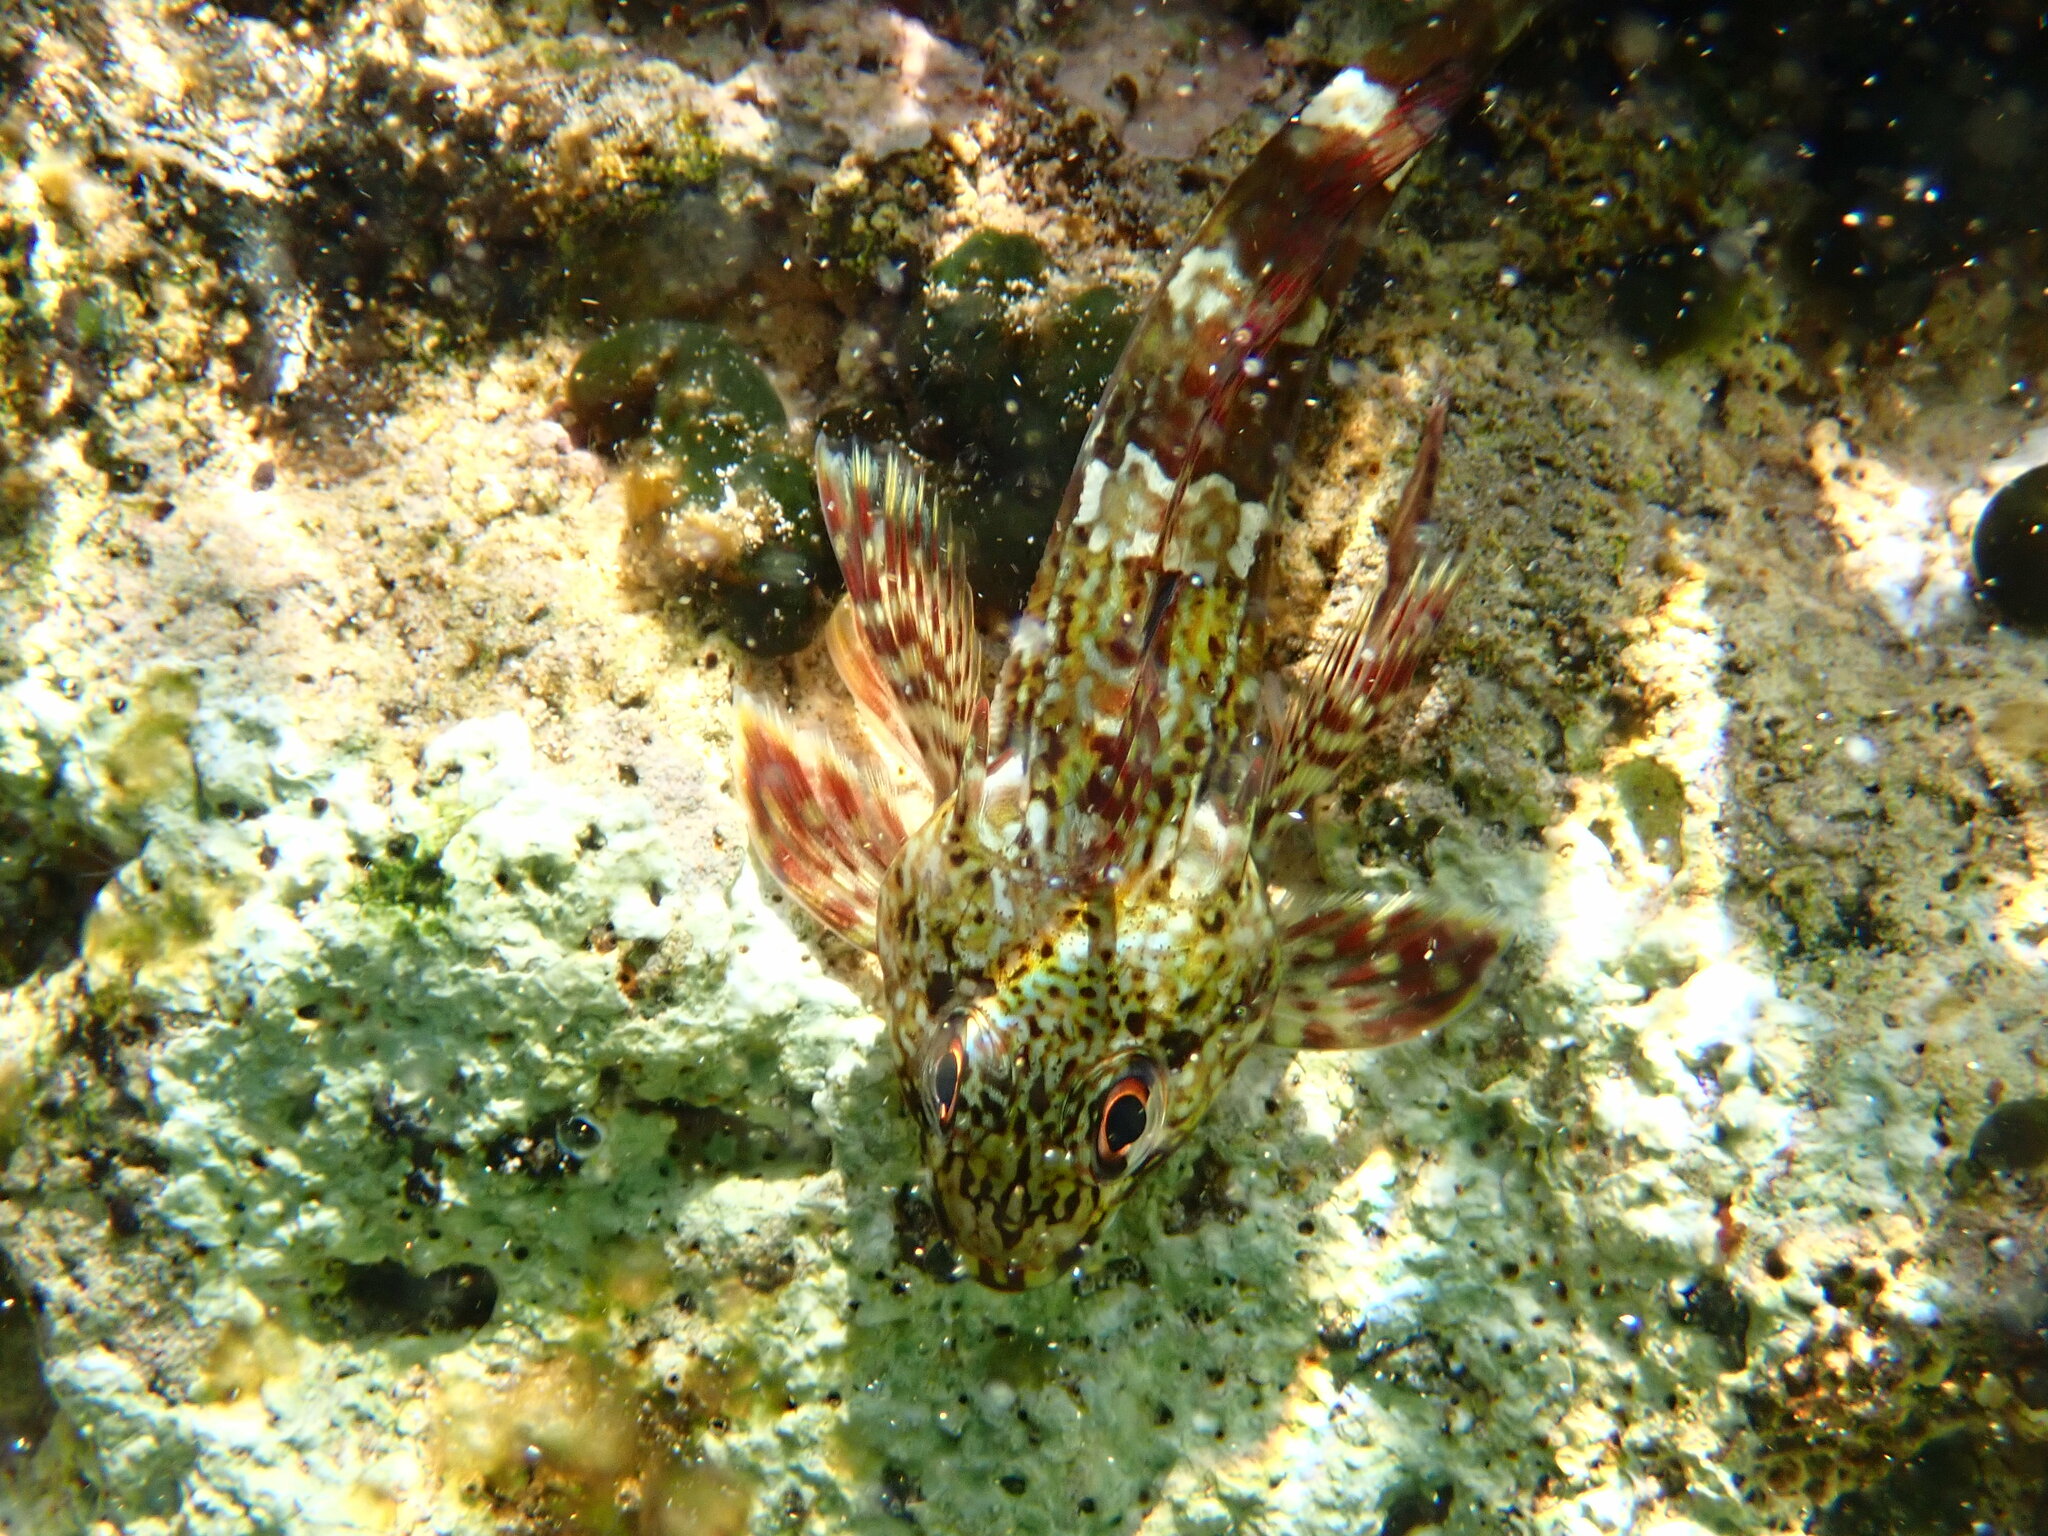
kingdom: Animalia
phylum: Chordata
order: Perciformes
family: Bovichtidae
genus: Bovichtus
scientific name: Bovichtus angustifrons
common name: Dragonet
